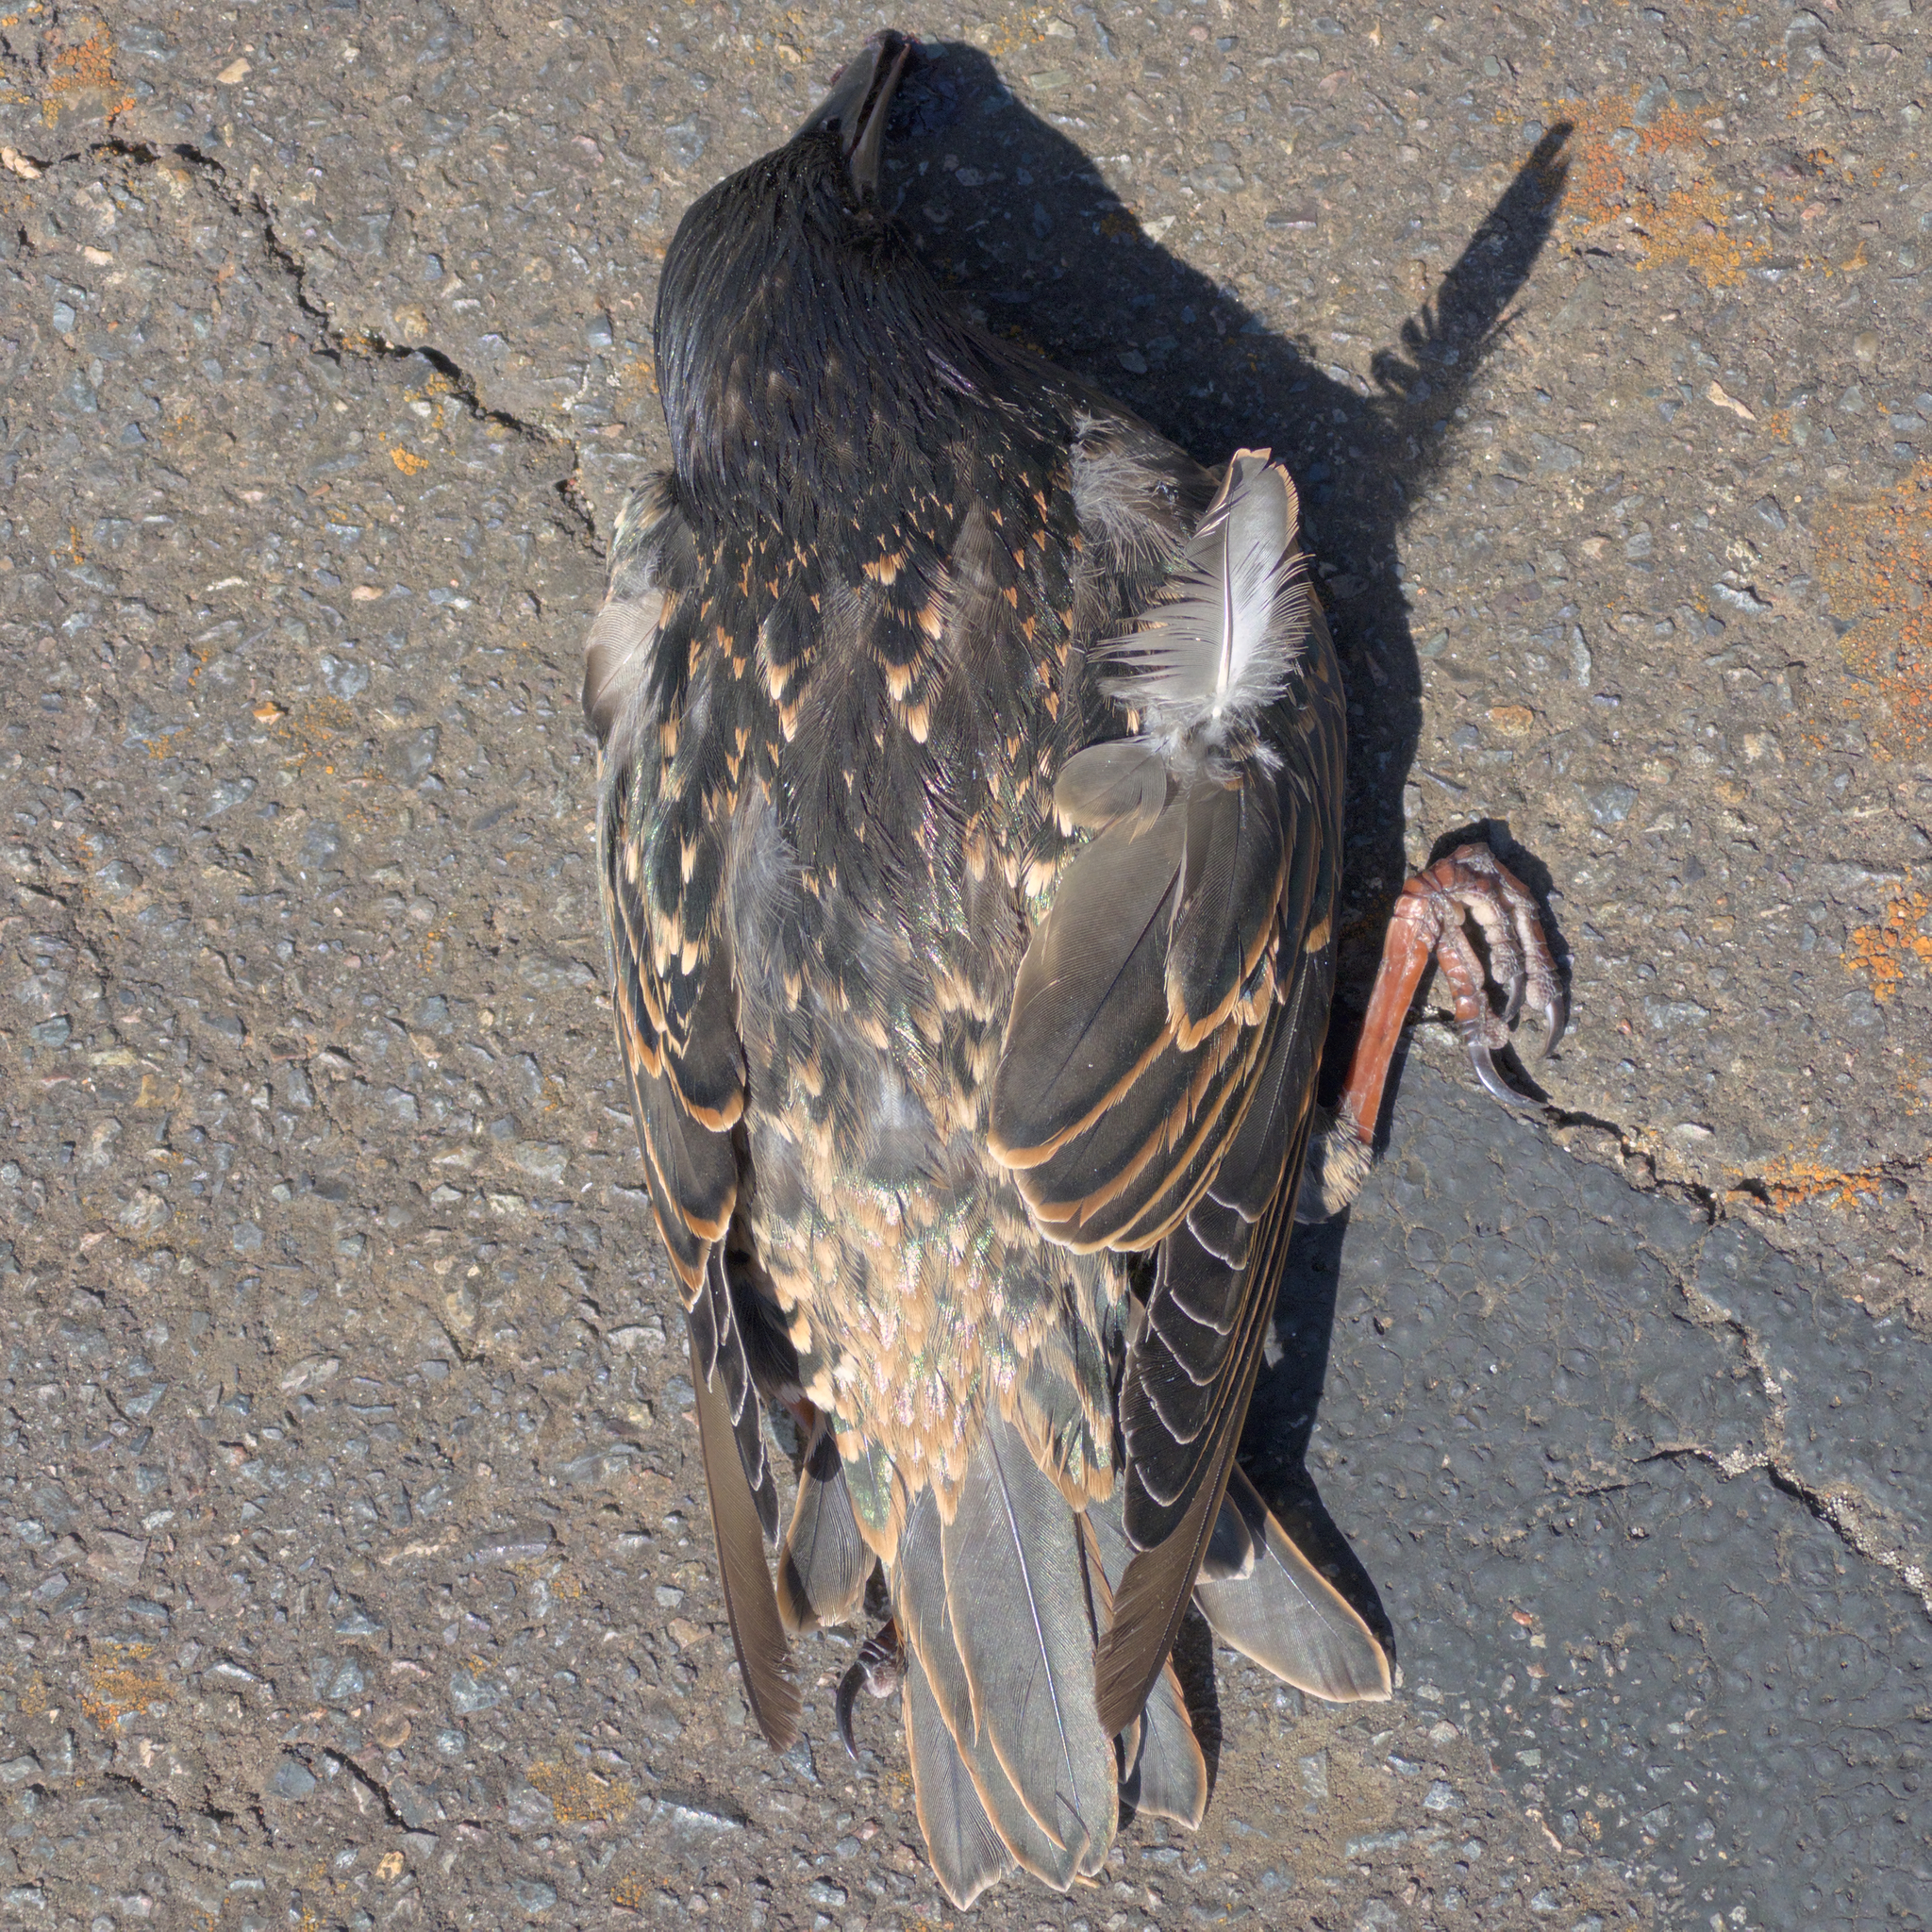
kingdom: Animalia
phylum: Chordata
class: Aves
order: Passeriformes
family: Sturnidae
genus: Sturnus
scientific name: Sturnus vulgaris
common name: Common starling
